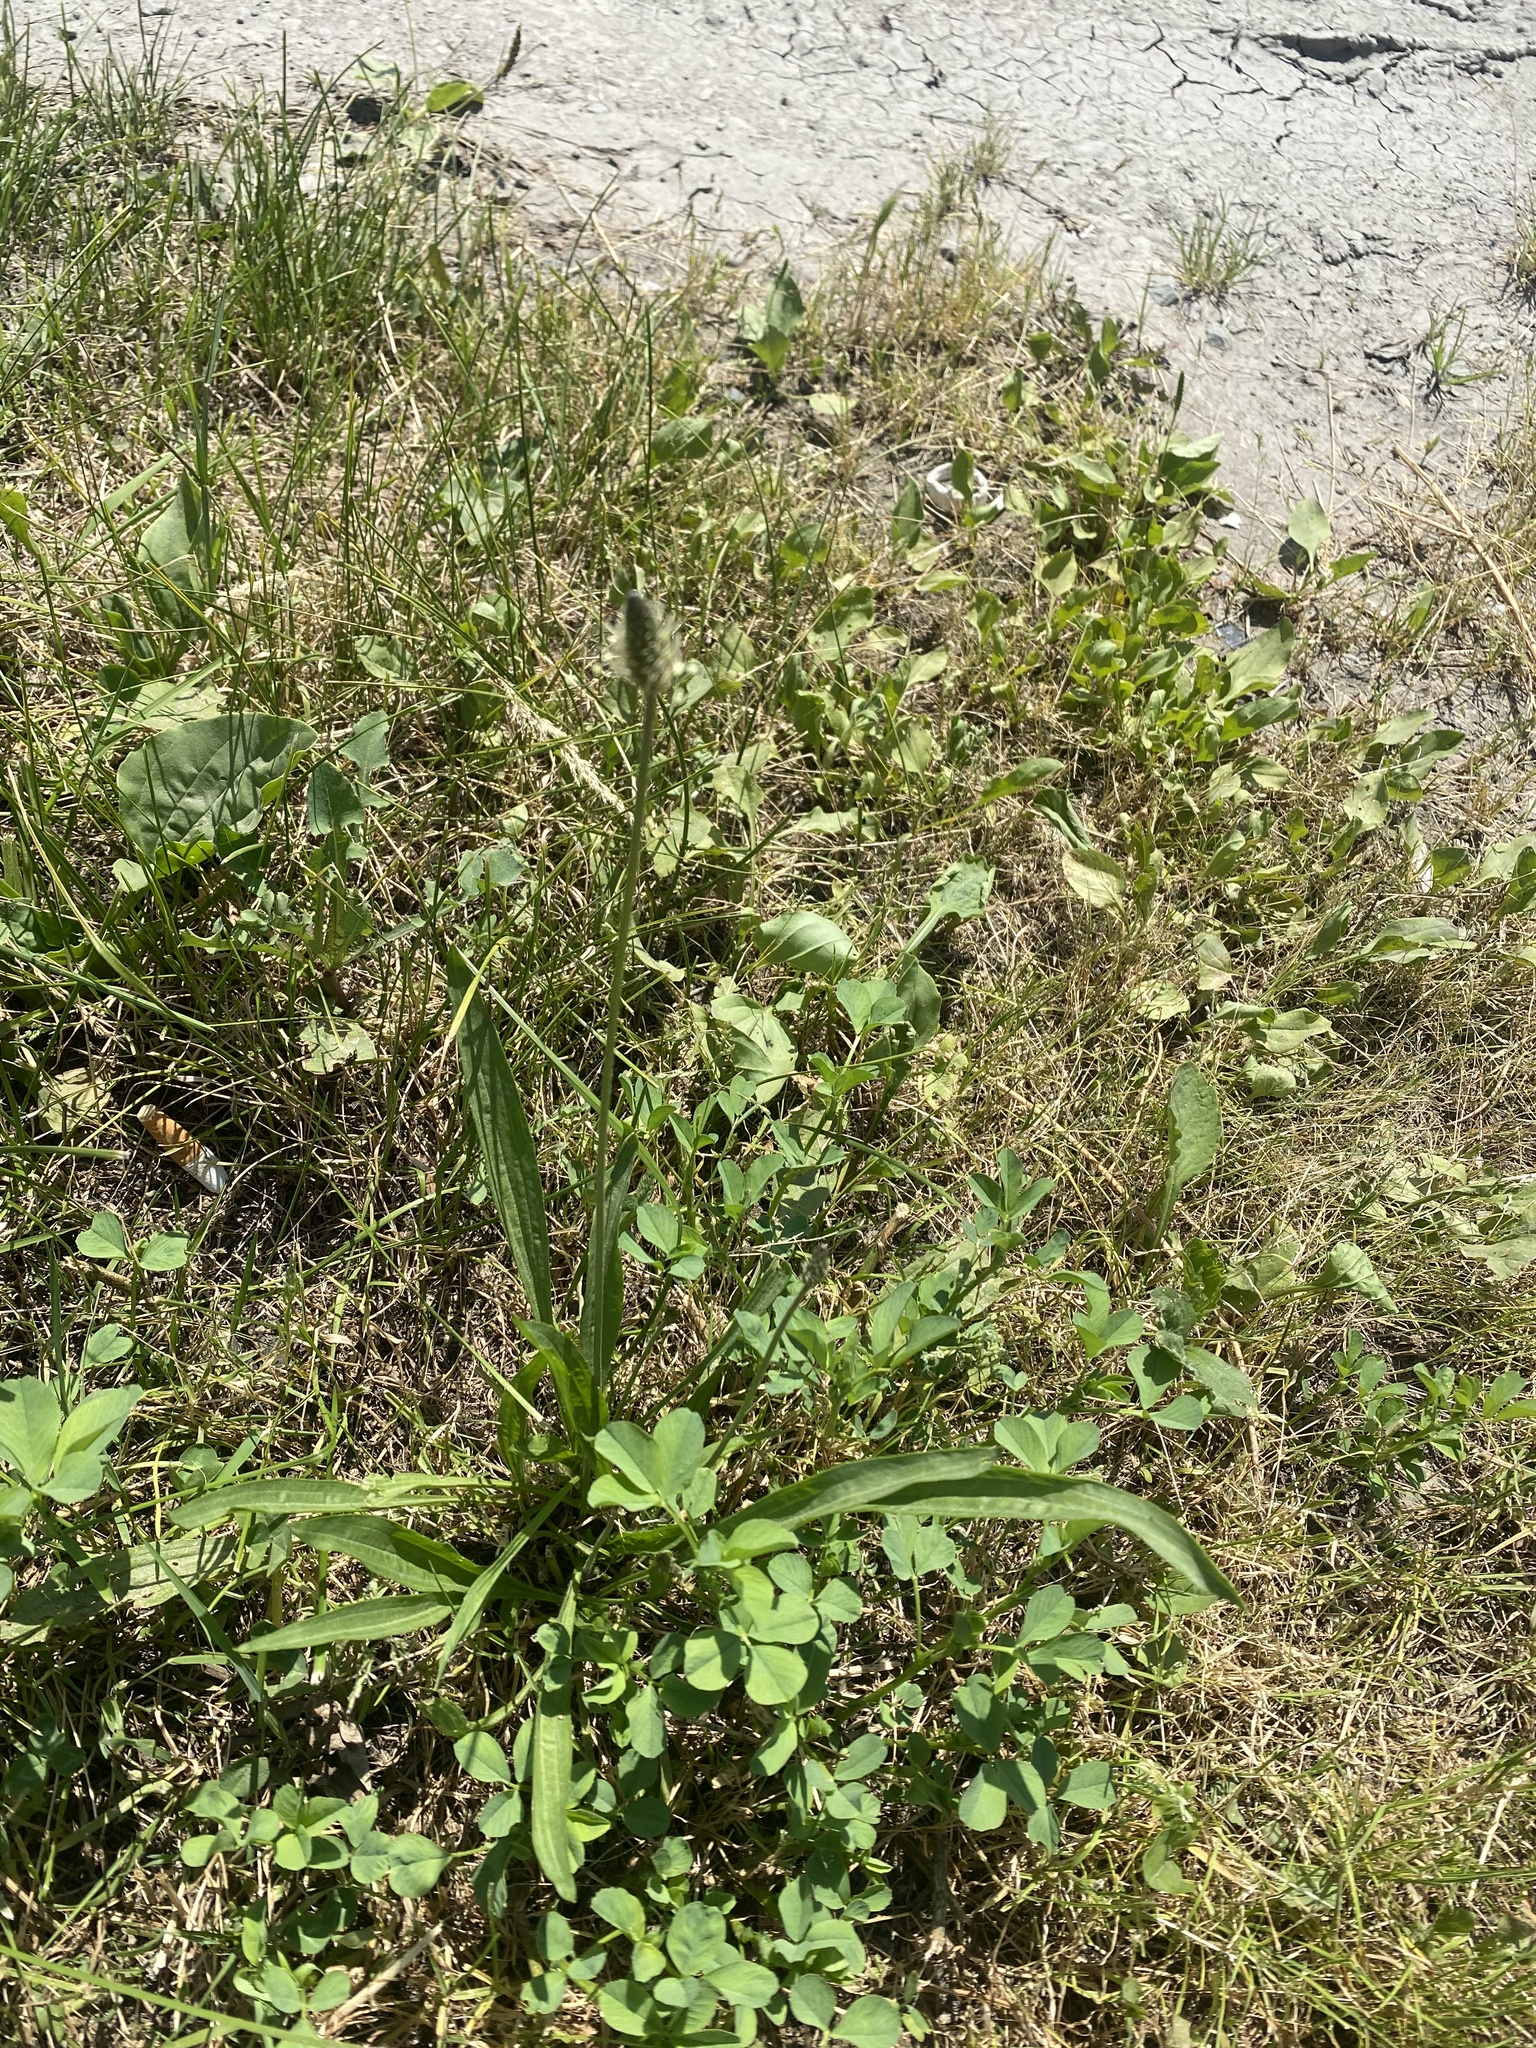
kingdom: Plantae
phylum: Tracheophyta
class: Magnoliopsida
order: Lamiales
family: Plantaginaceae
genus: Plantago
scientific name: Plantago lanceolata
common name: Ribwort plantain
